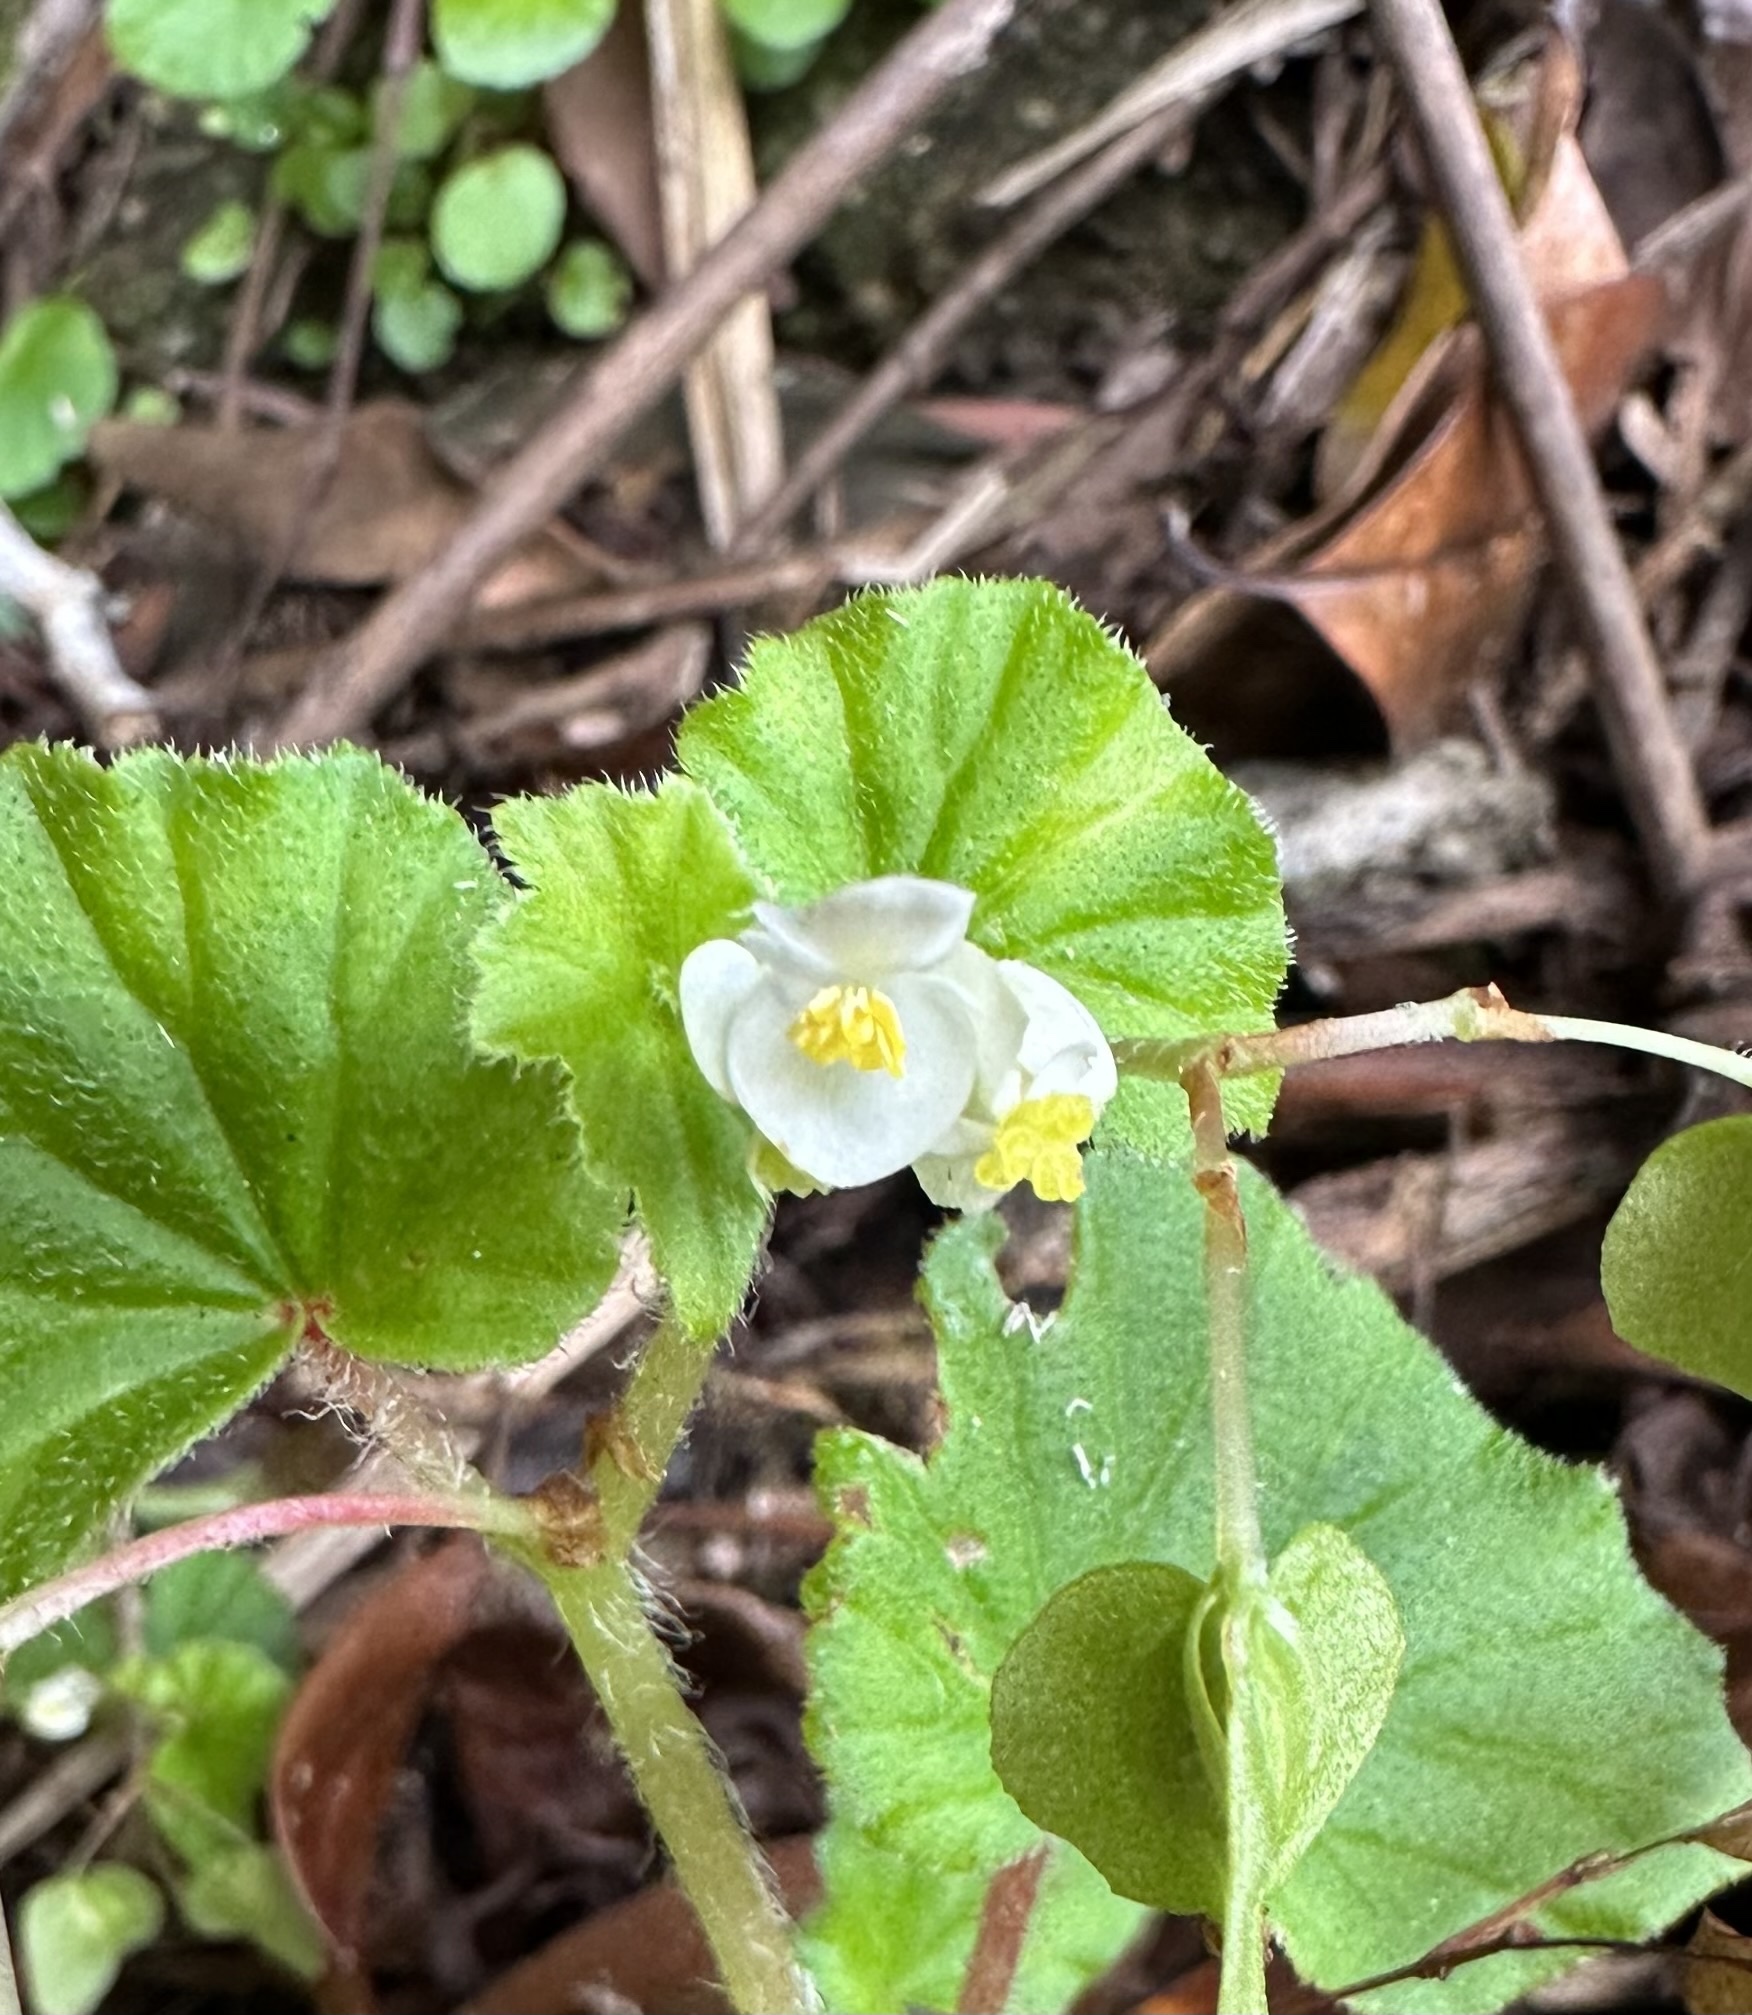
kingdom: Plantae
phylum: Tracheophyta
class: Magnoliopsida
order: Cucurbitales
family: Begoniaceae
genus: Begonia
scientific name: Begonia hirtella
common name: Brazilian begonia
